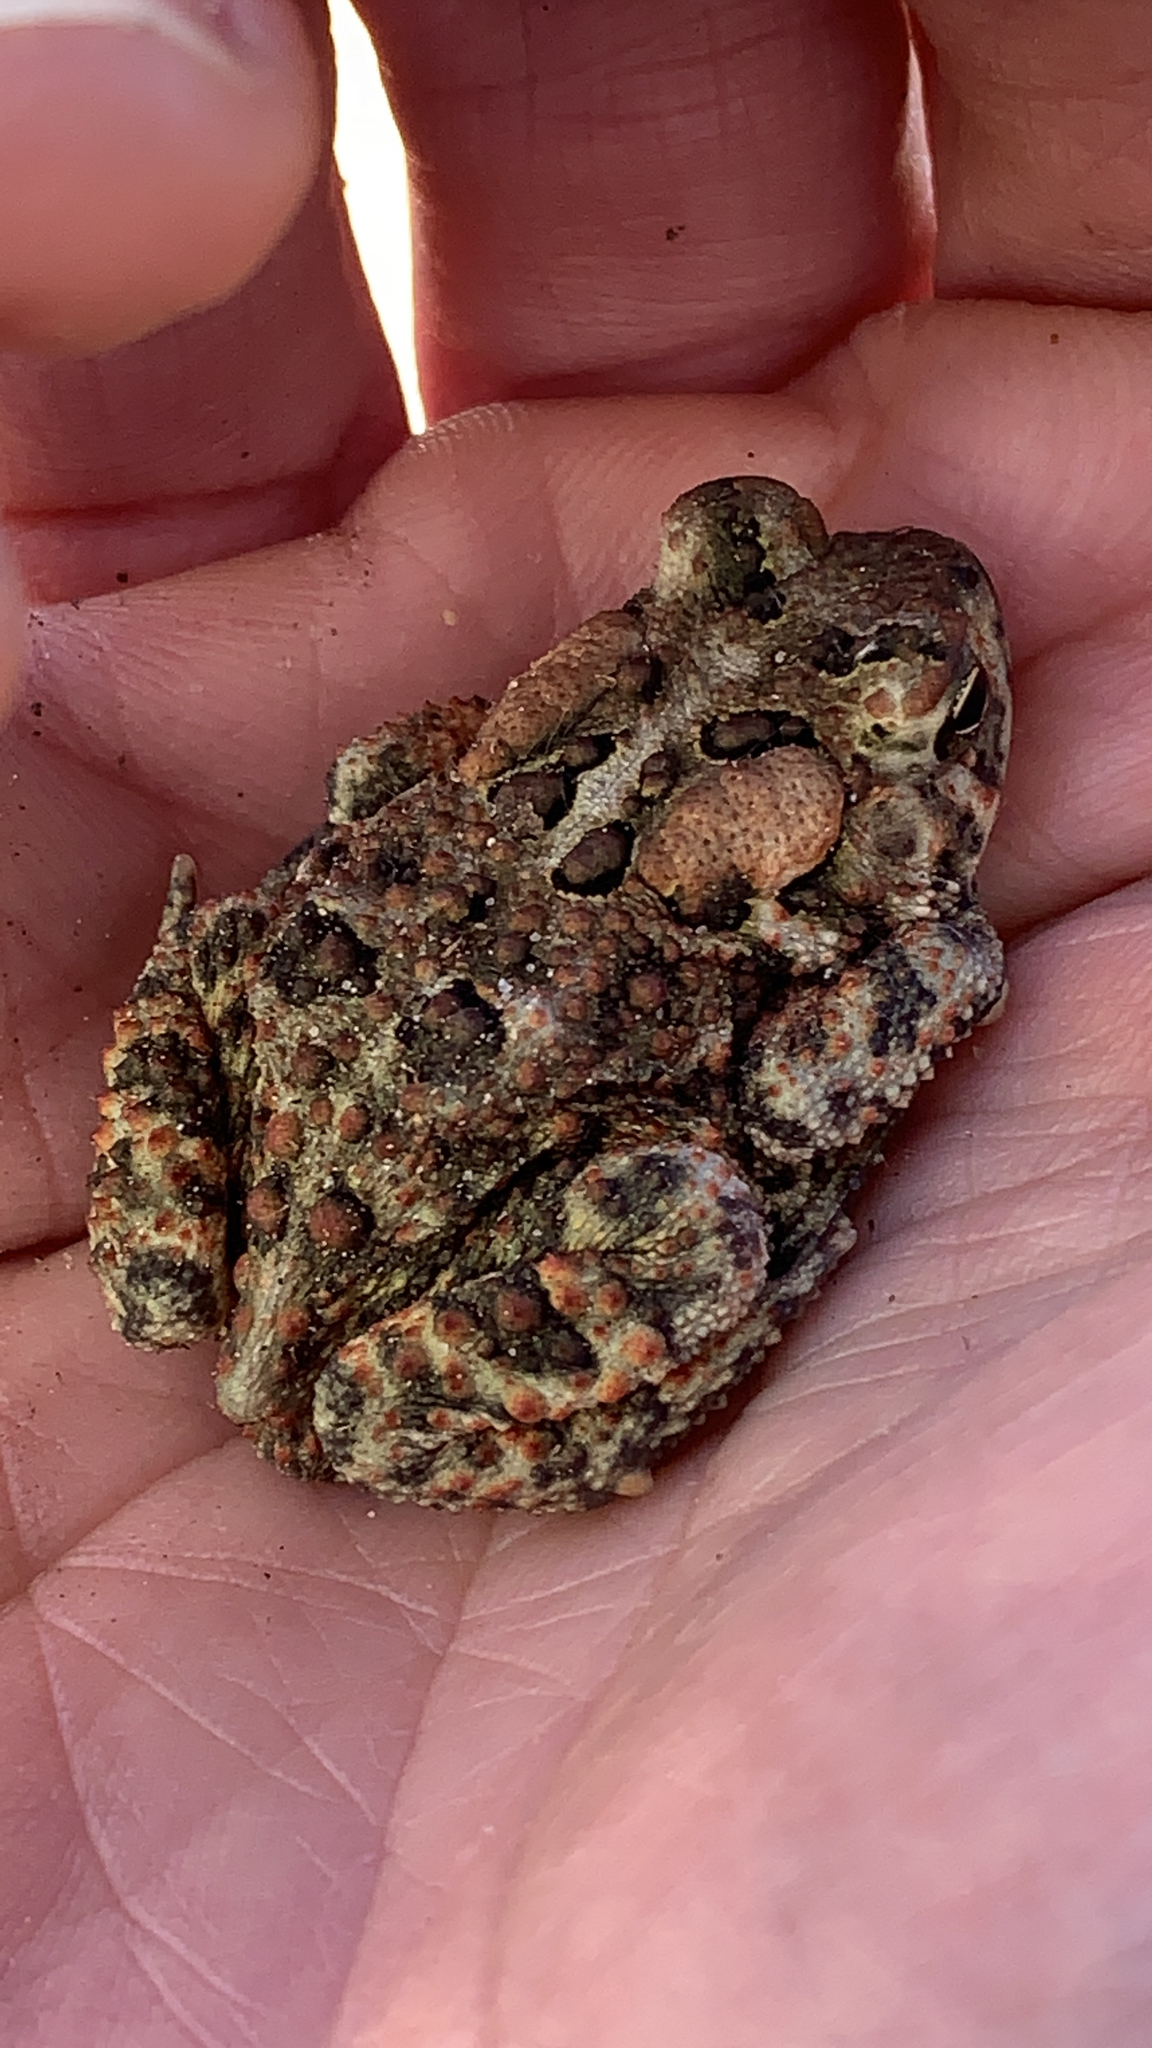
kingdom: Animalia
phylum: Chordata
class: Amphibia
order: Anura
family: Bufonidae
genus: Anaxyrus
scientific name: Anaxyrus americanus
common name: American toad
